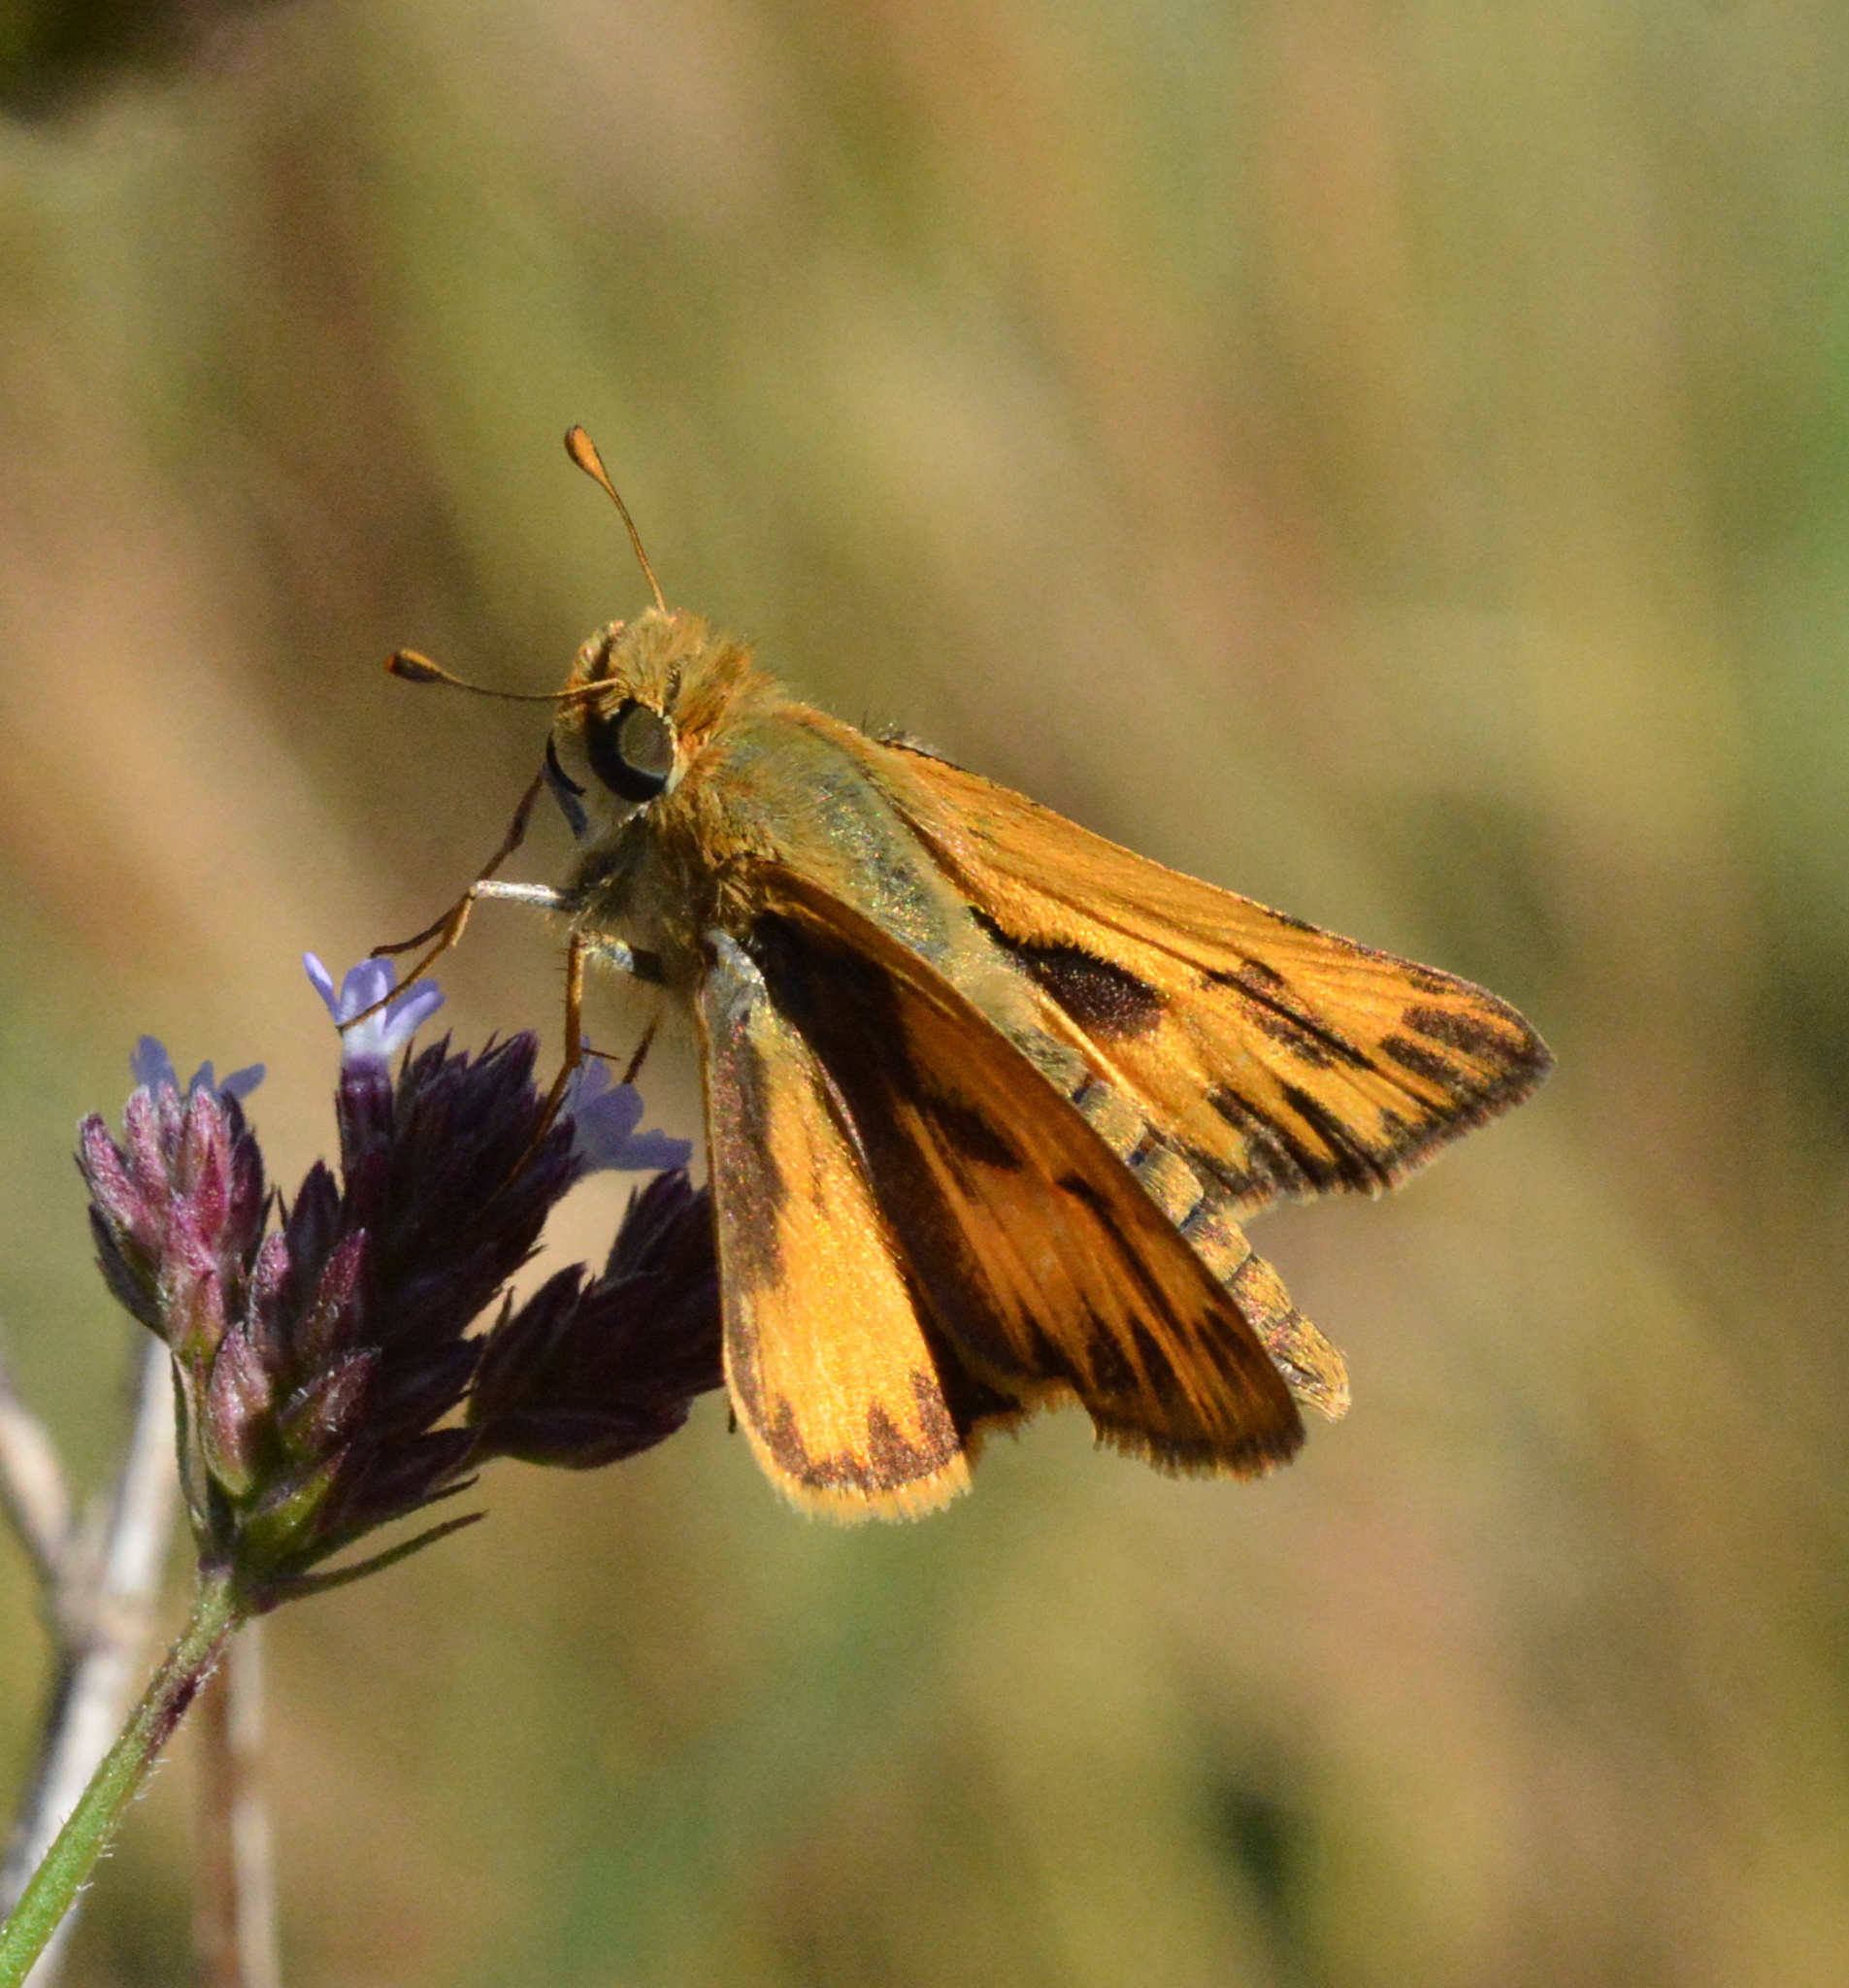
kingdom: Animalia
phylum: Arthropoda
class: Insecta
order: Lepidoptera
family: Hesperiidae
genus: Hylephila
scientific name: Hylephila phyleus
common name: Fiery skipper
